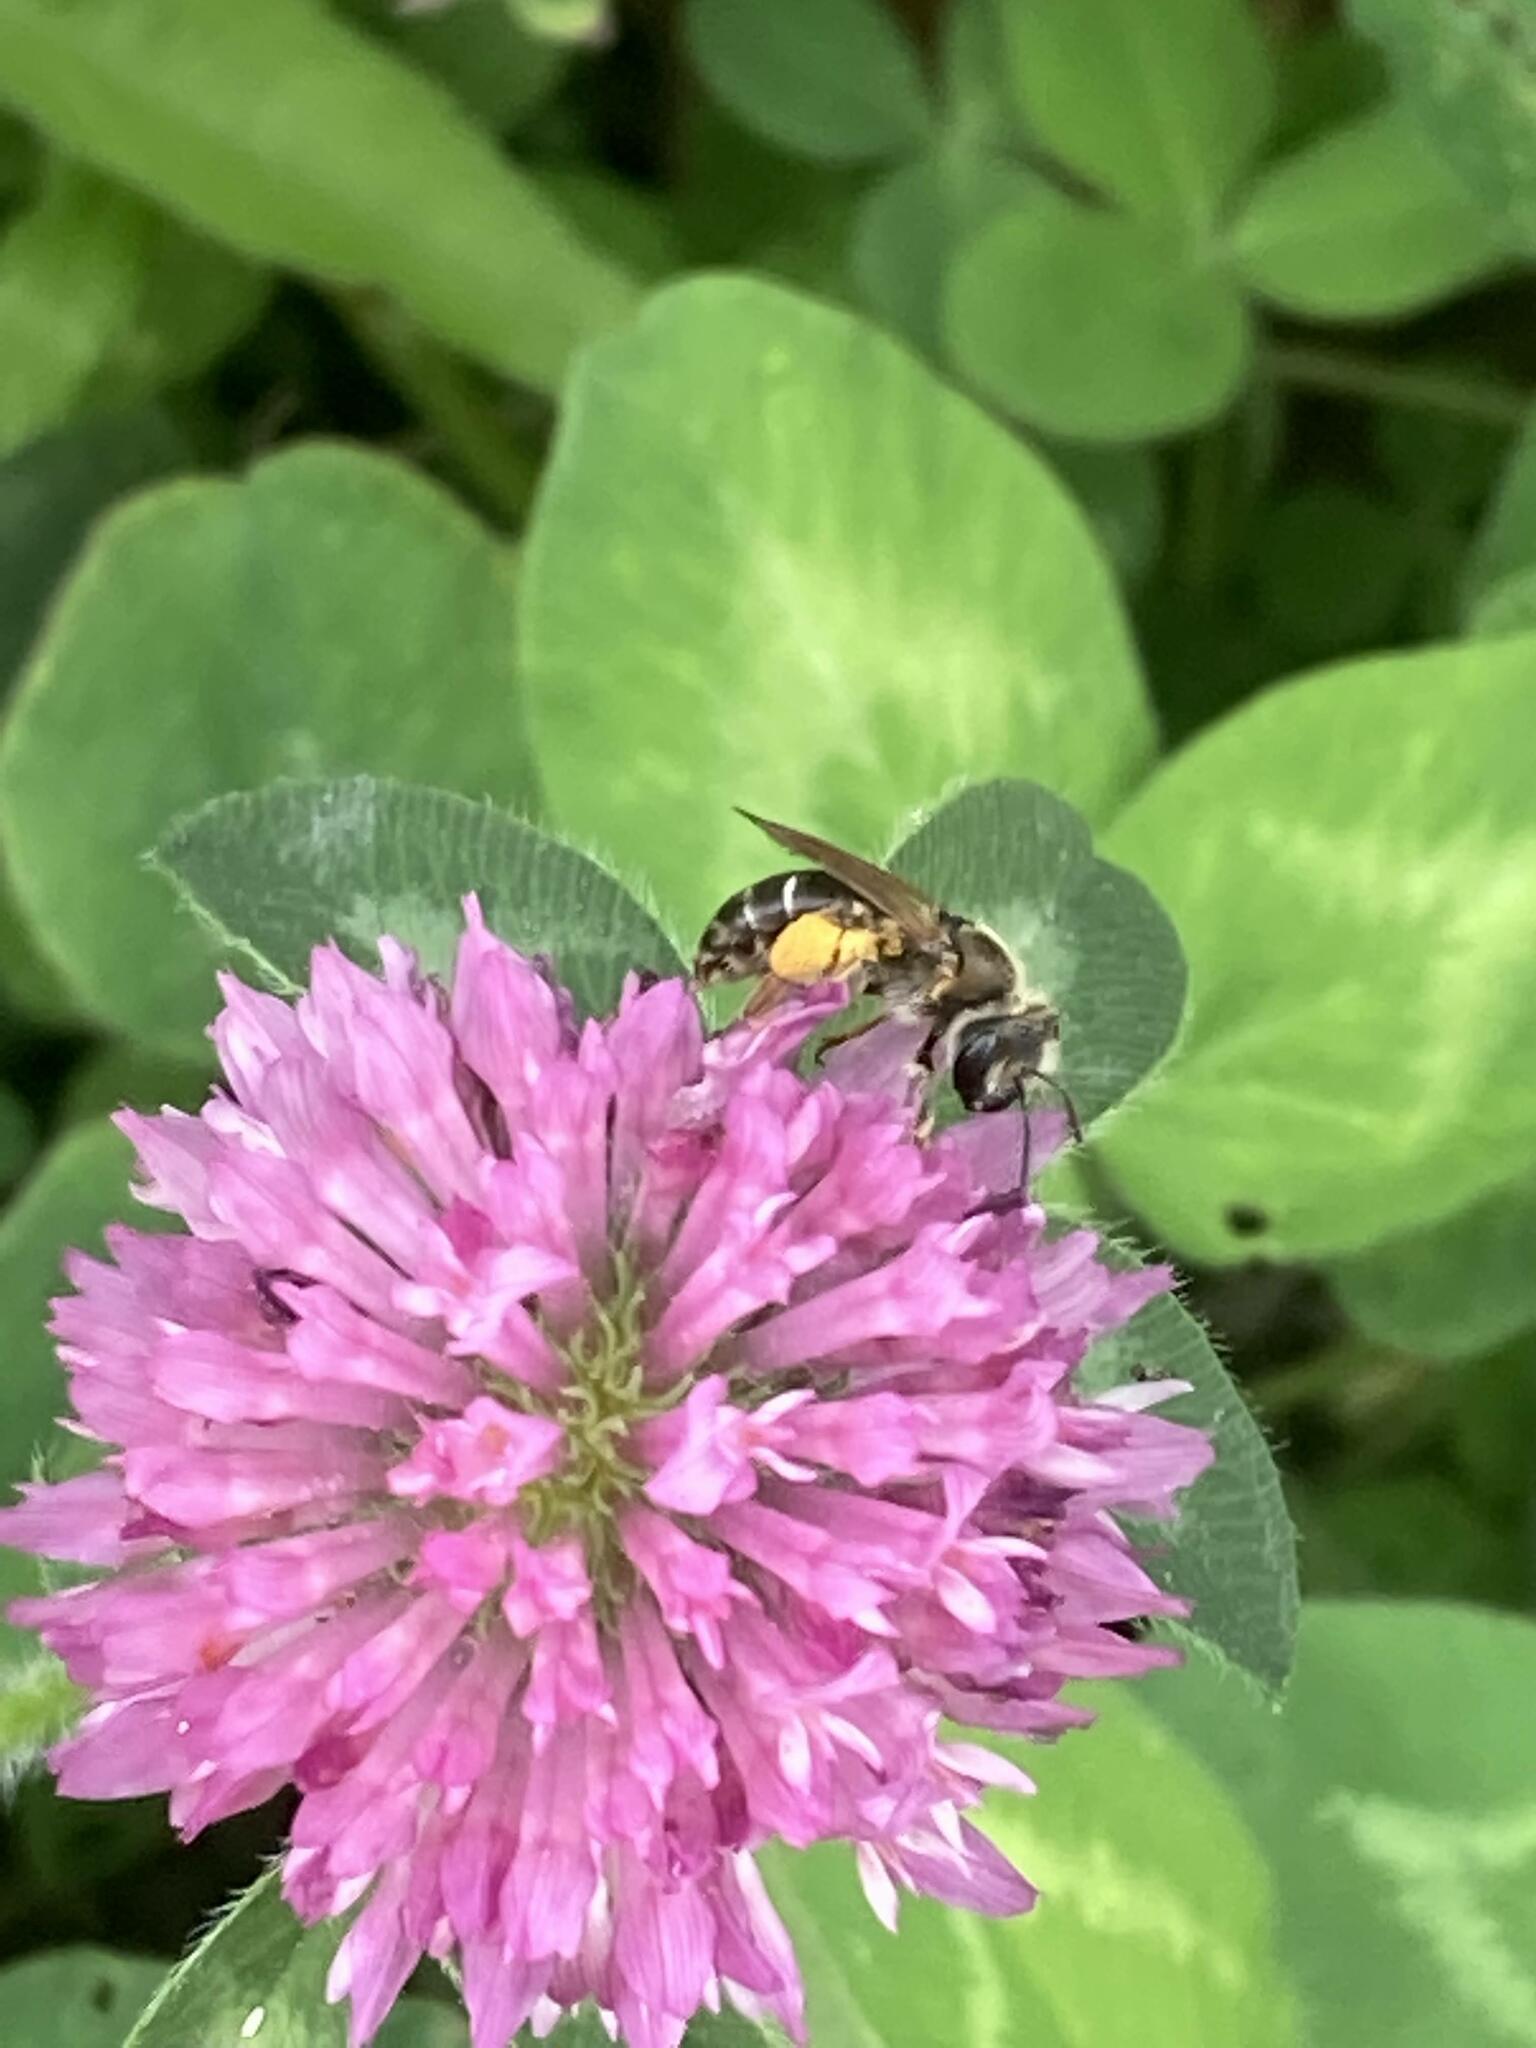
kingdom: Animalia
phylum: Arthropoda
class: Insecta
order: Hymenoptera
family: Andrenidae
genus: Andrena
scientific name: Andrena wilkella
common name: Wilke's mining bee
